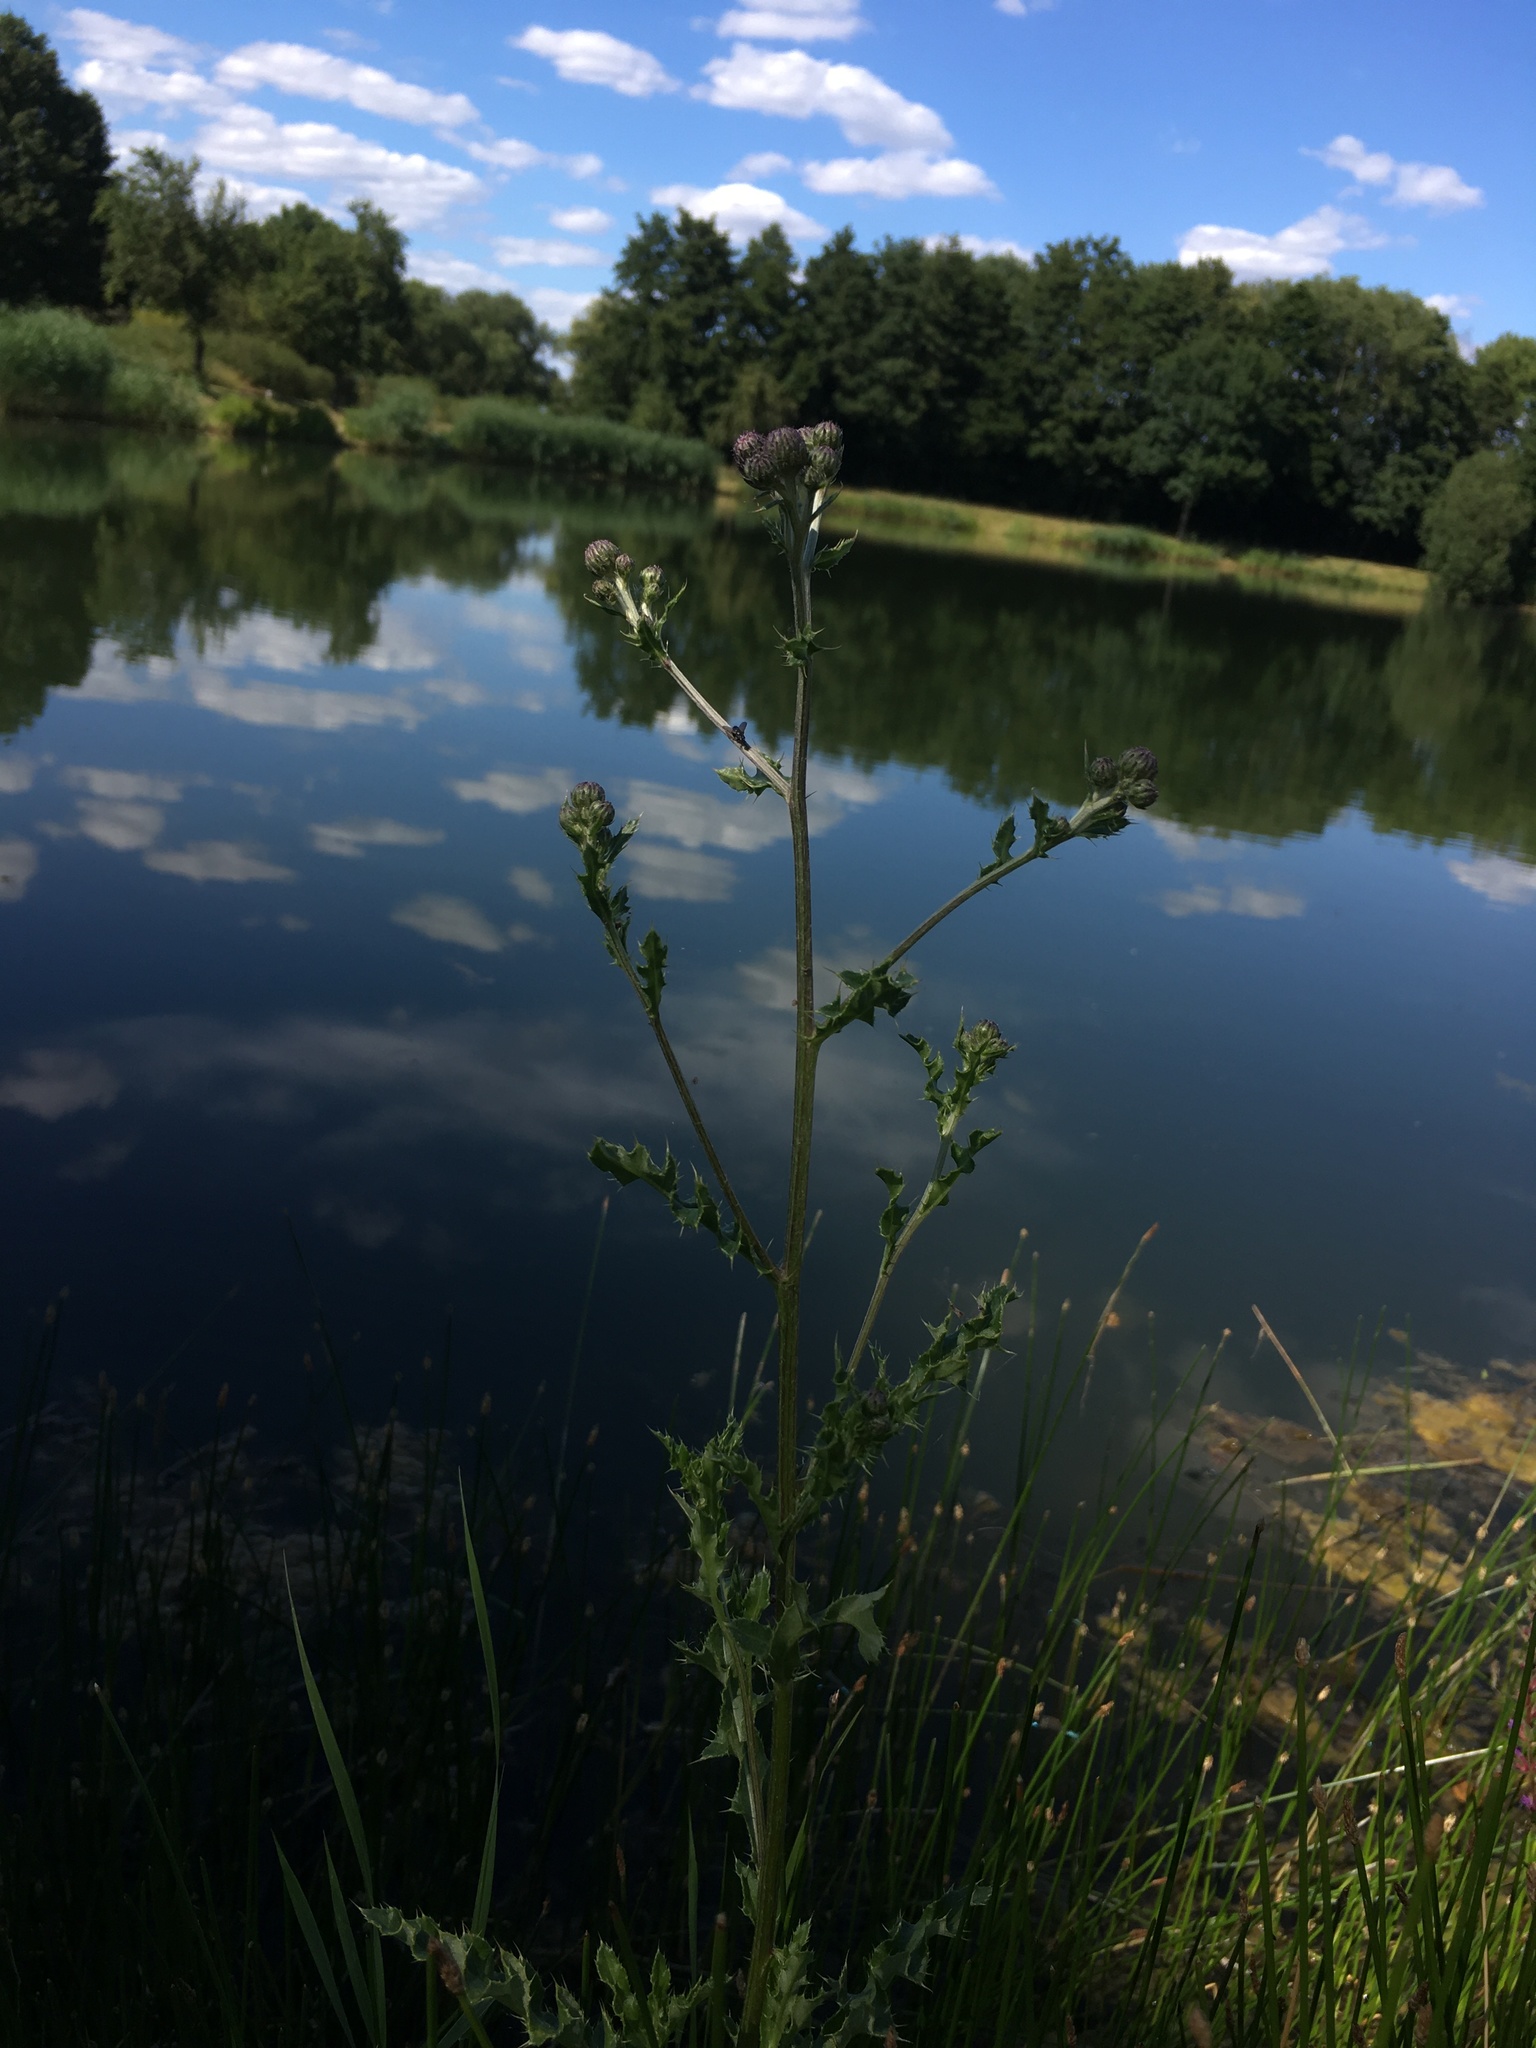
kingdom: Plantae
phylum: Tracheophyta
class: Magnoliopsida
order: Asterales
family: Asteraceae
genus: Cirsium
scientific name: Cirsium arvense
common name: Creeping thistle
